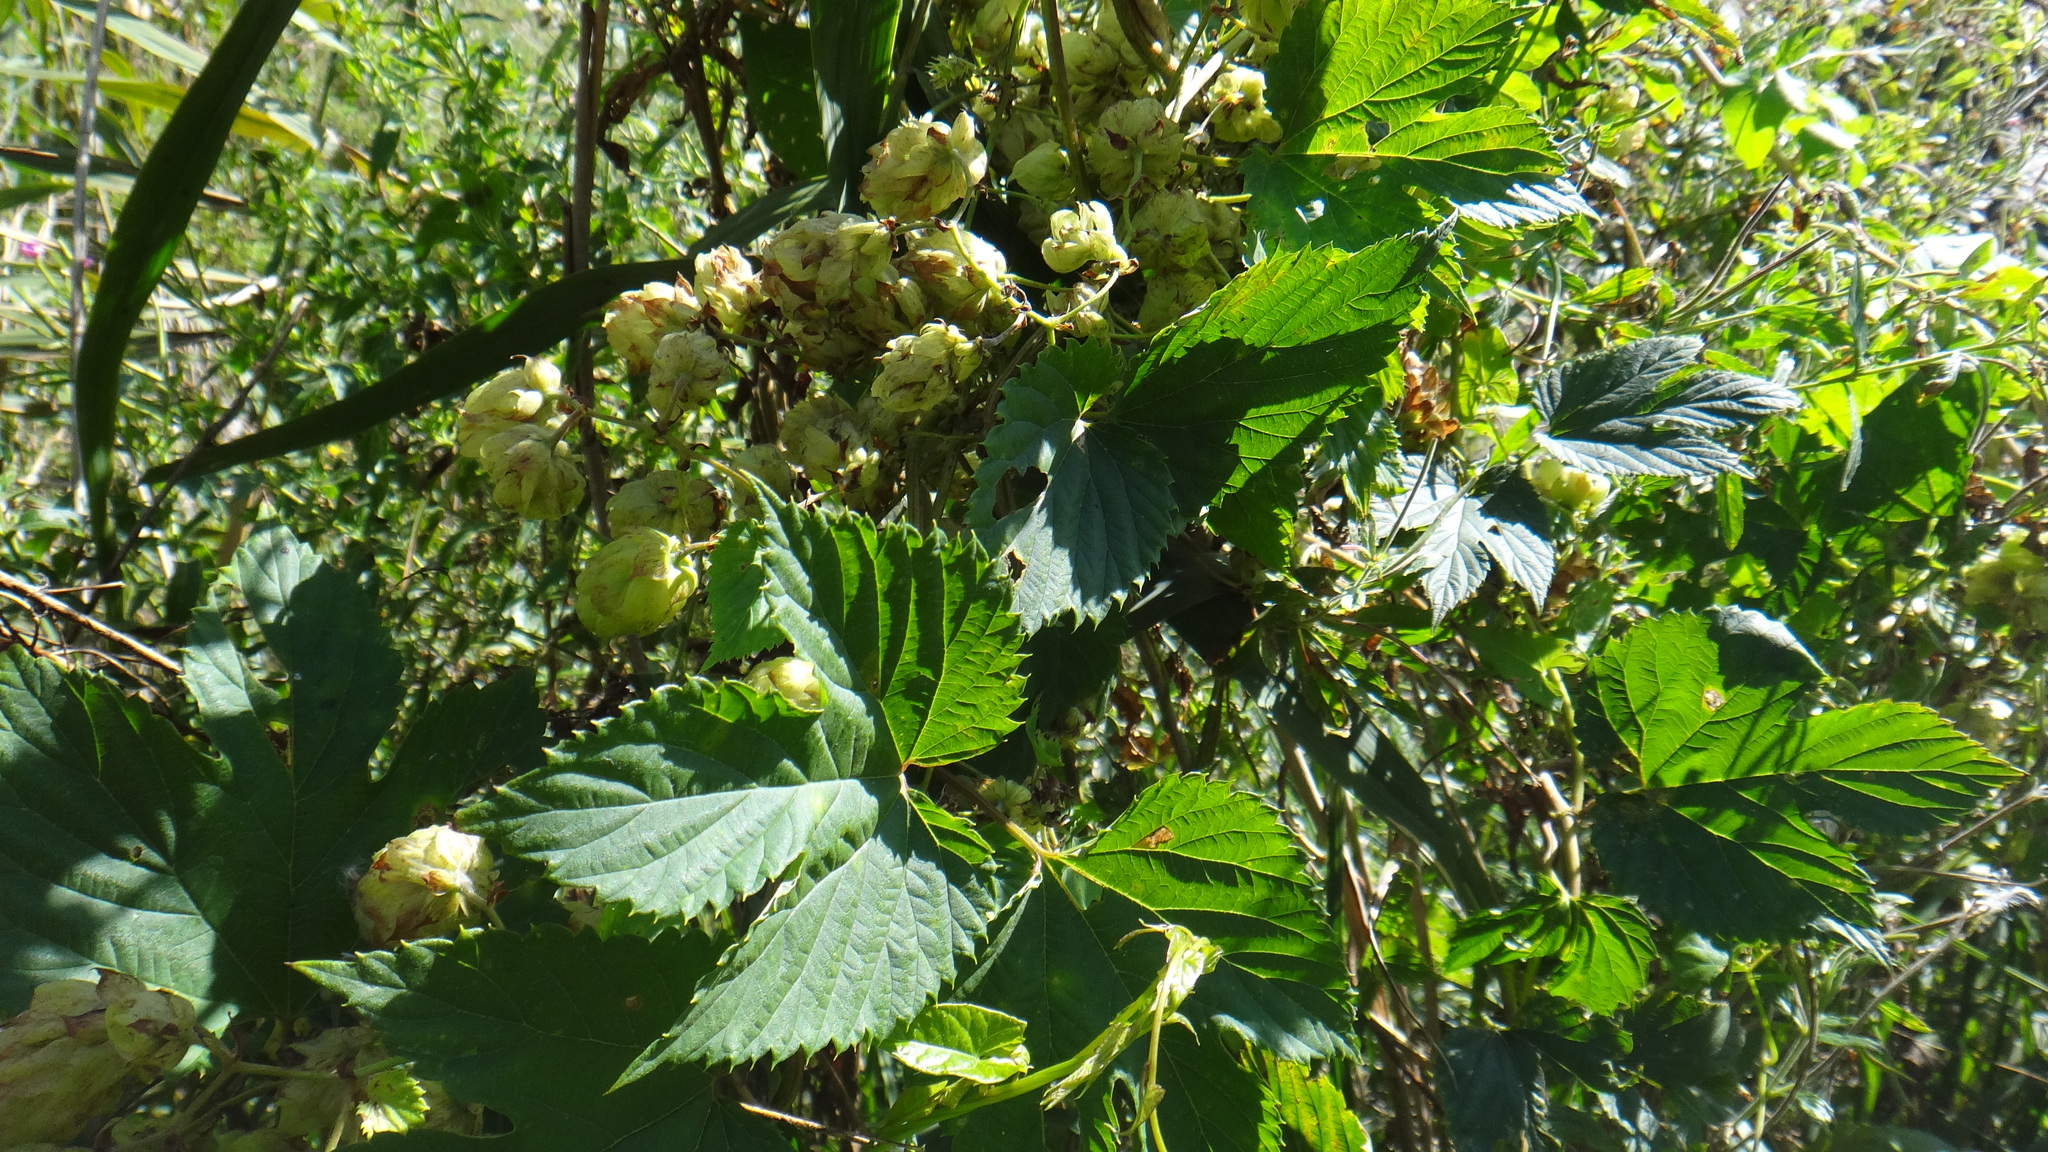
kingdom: Plantae
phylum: Tracheophyta
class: Magnoliopsida
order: Rosales
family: Cannabaceae
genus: Humulus
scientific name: Humulus lupulus
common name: Hop
